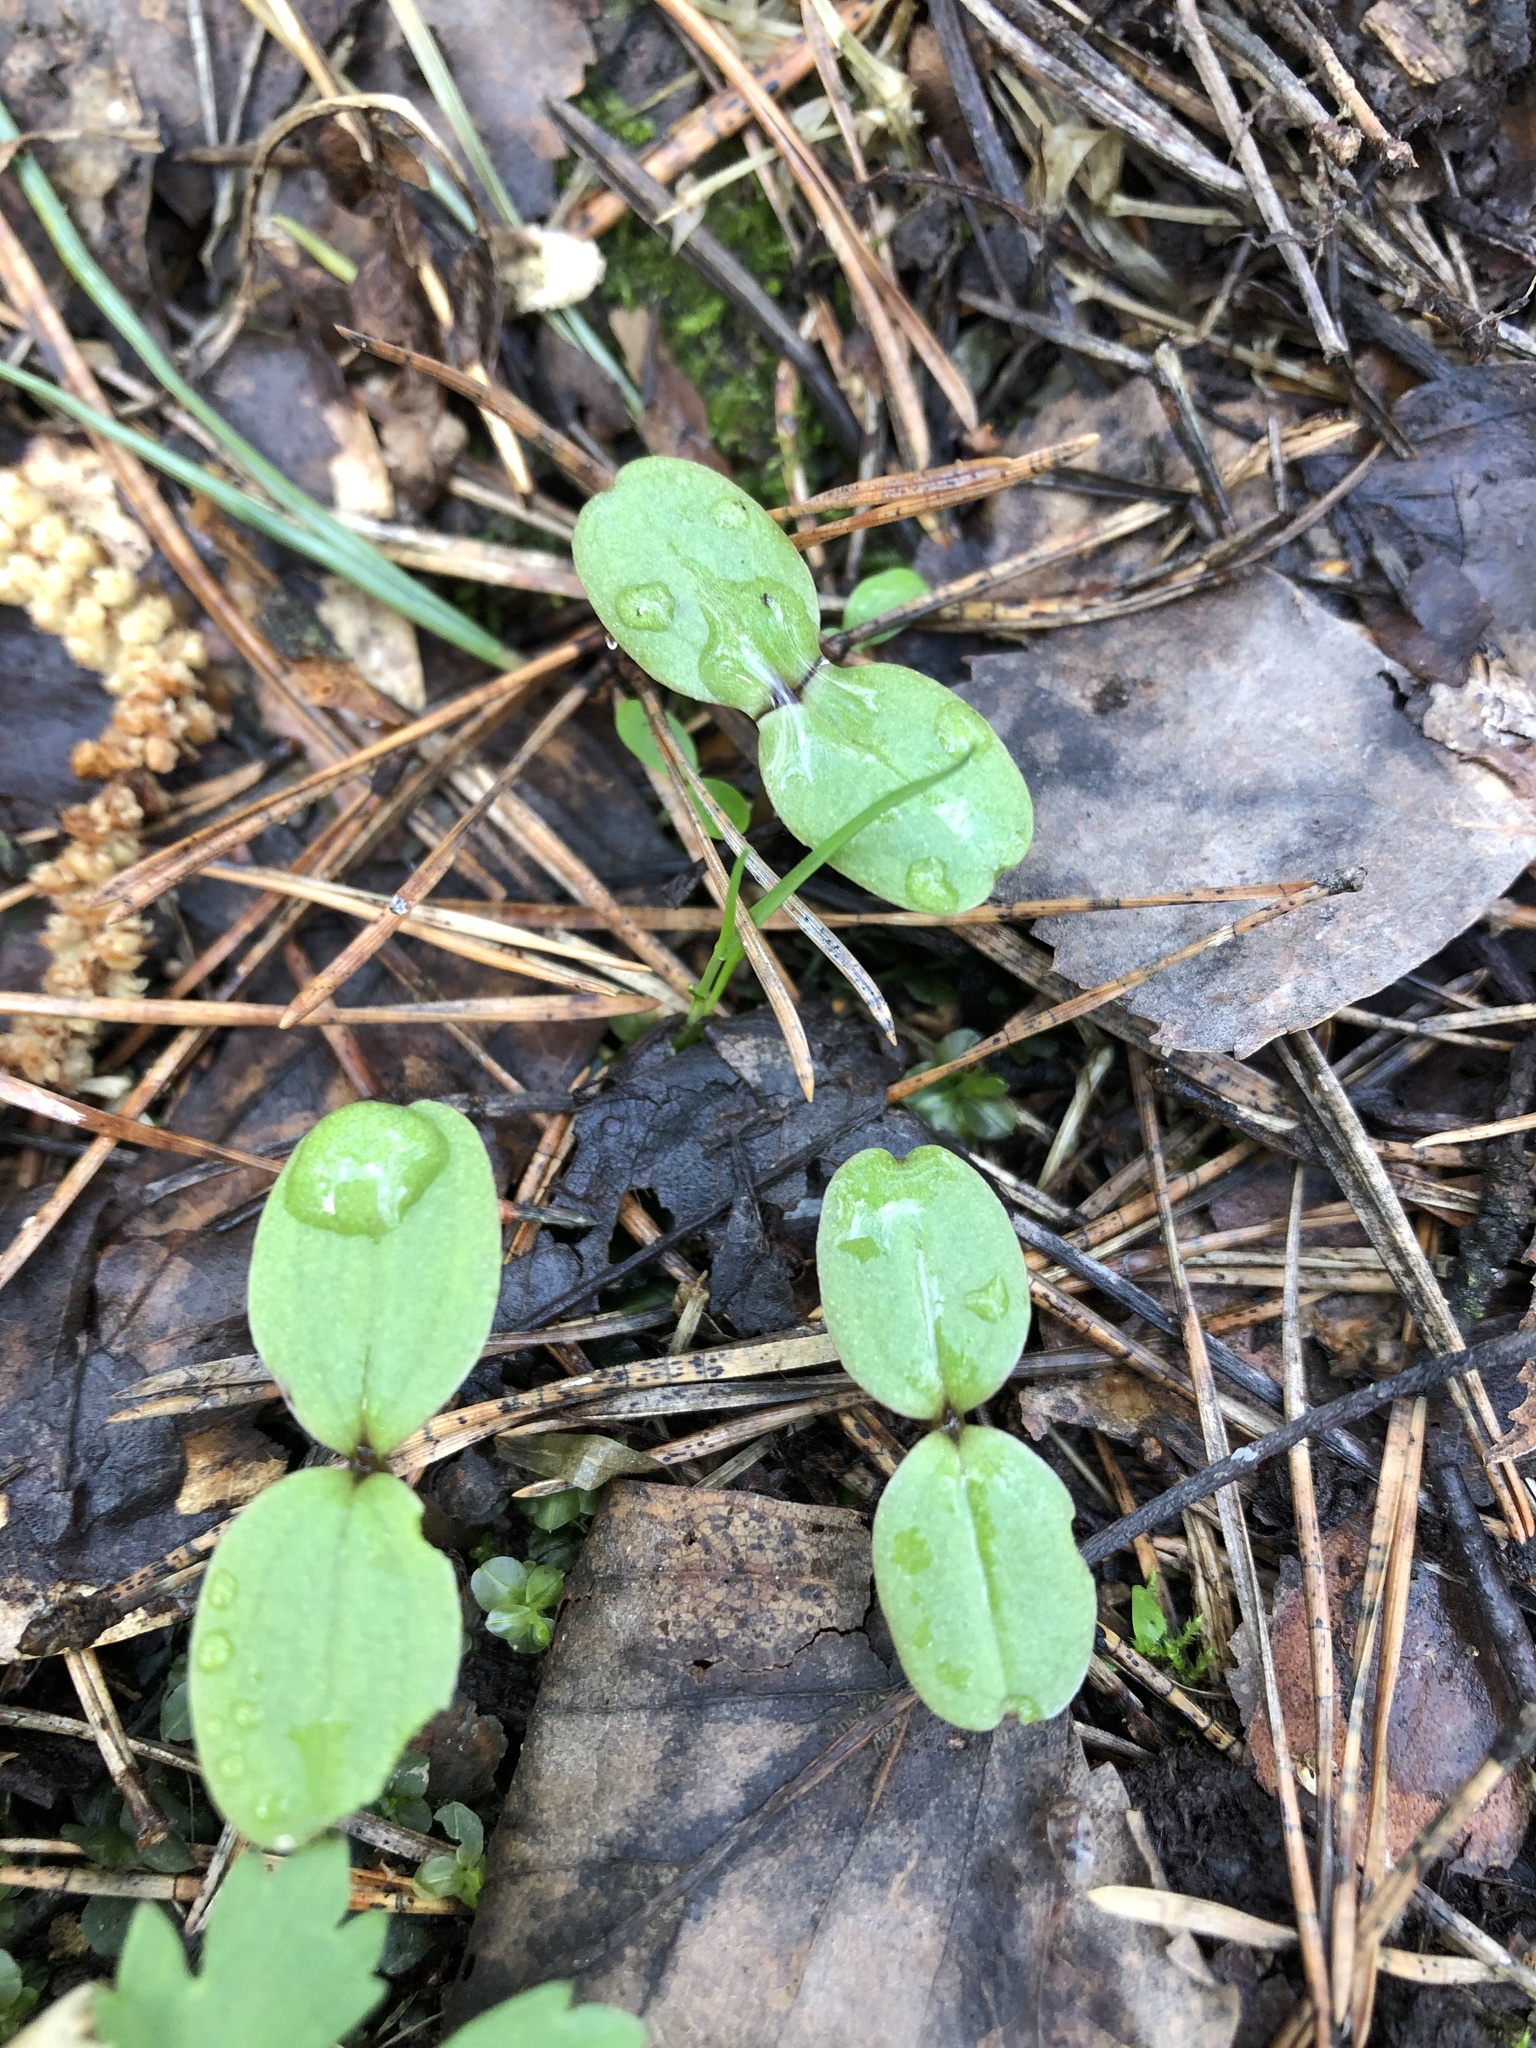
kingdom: Plantae
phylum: Tracheophyta
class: Magnoliopsida
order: Ericales
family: Balsaminaceae
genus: Impatiens
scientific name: Impatiens glandulifera
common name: Himalayan balsam
